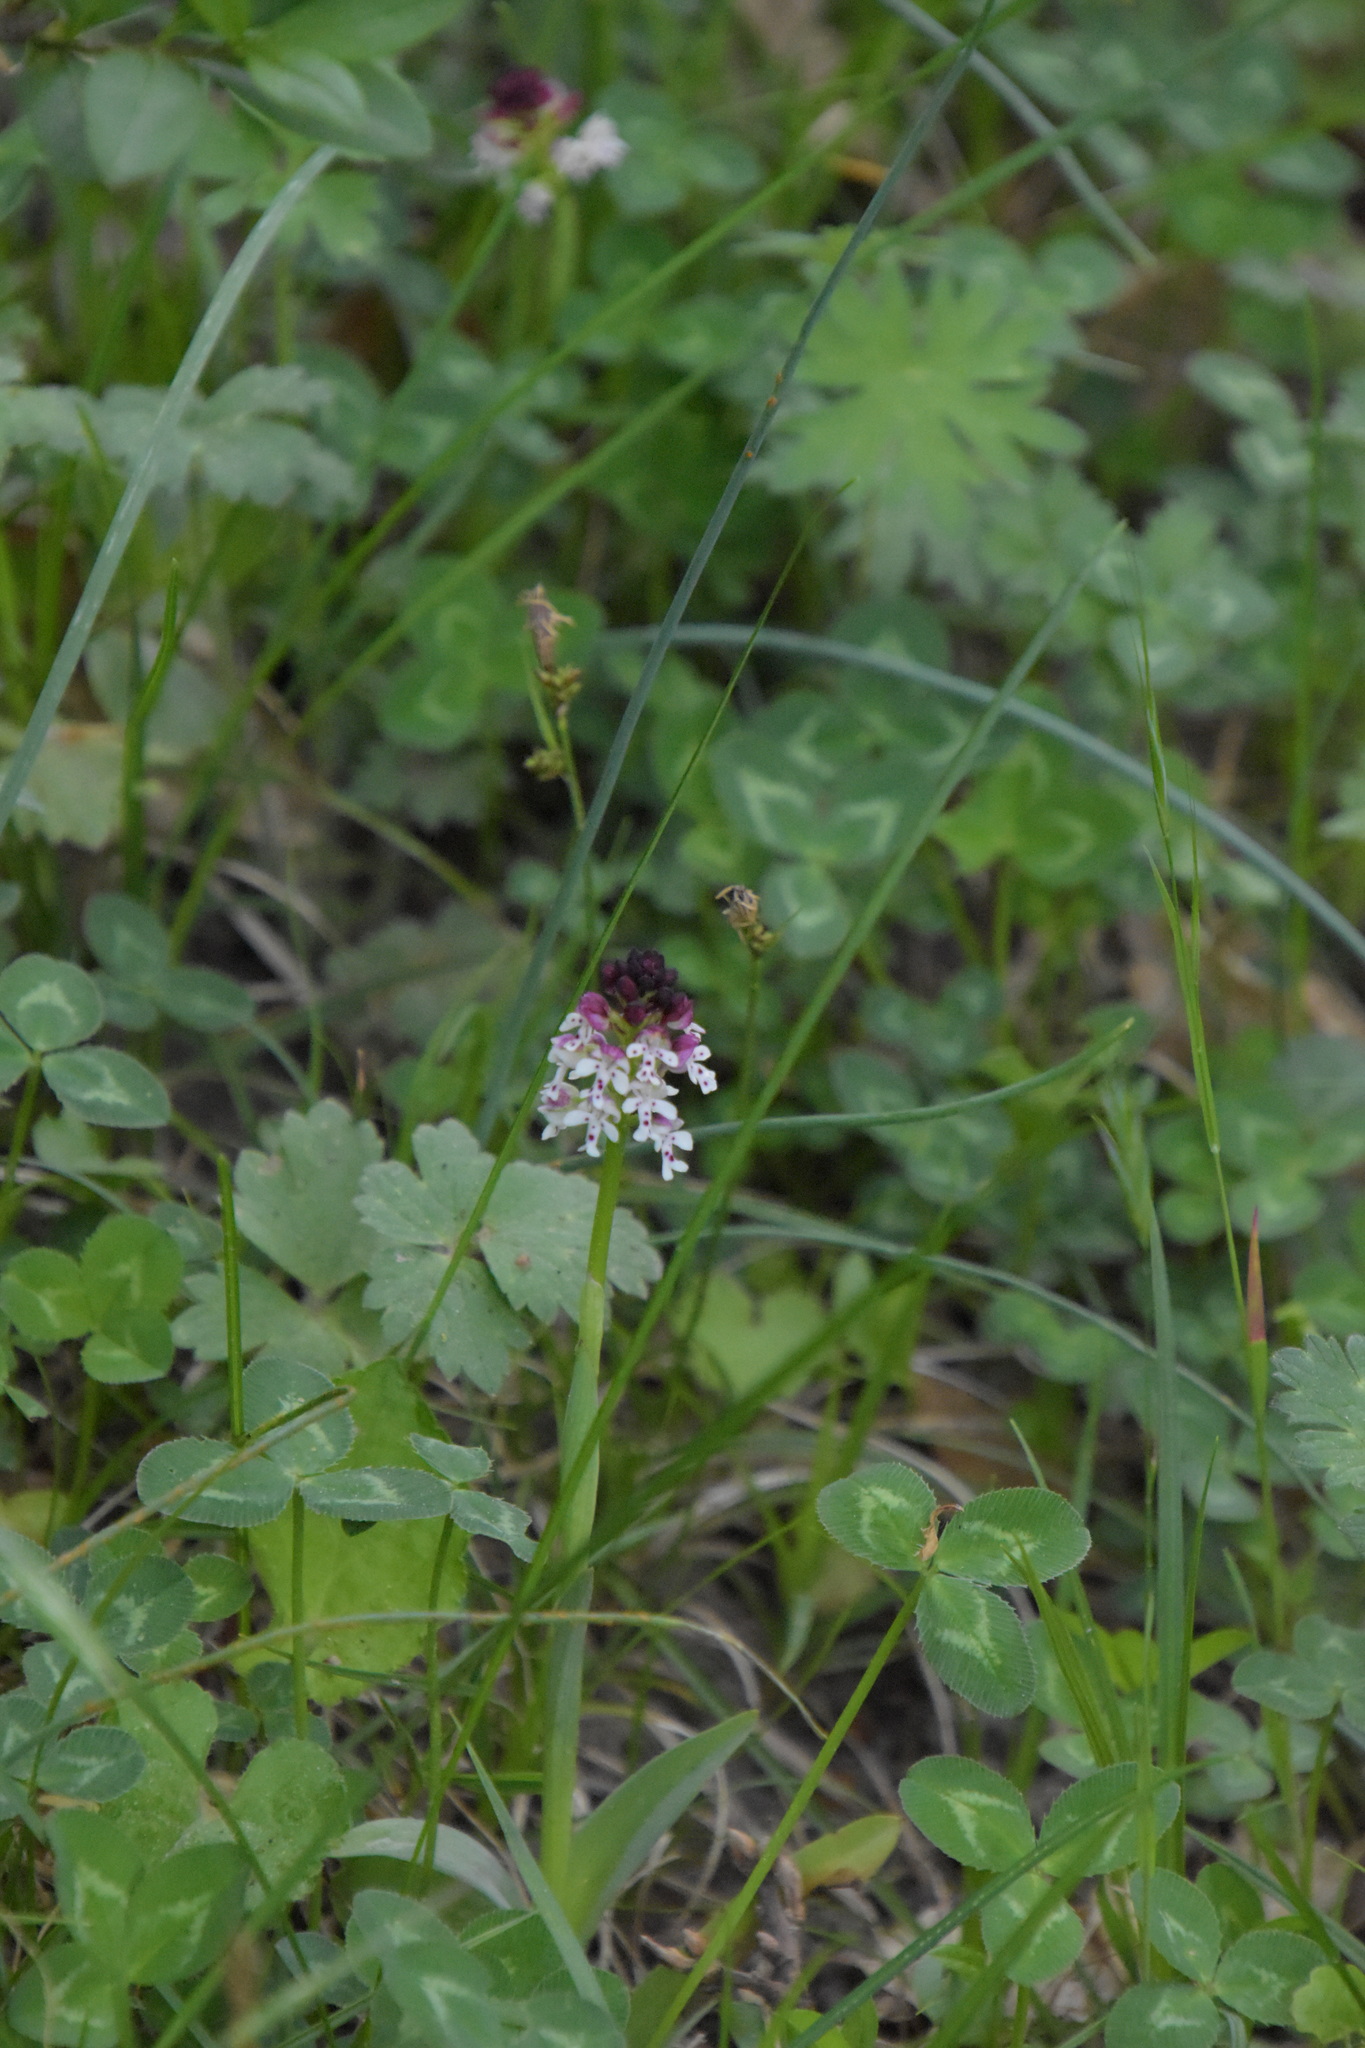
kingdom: Plantae
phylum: Tracheophyta
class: Liliopsida
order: Asparagales
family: Orchidaceae
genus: Neotinea
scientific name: Neotinea ustulata
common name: Burnt orchid
